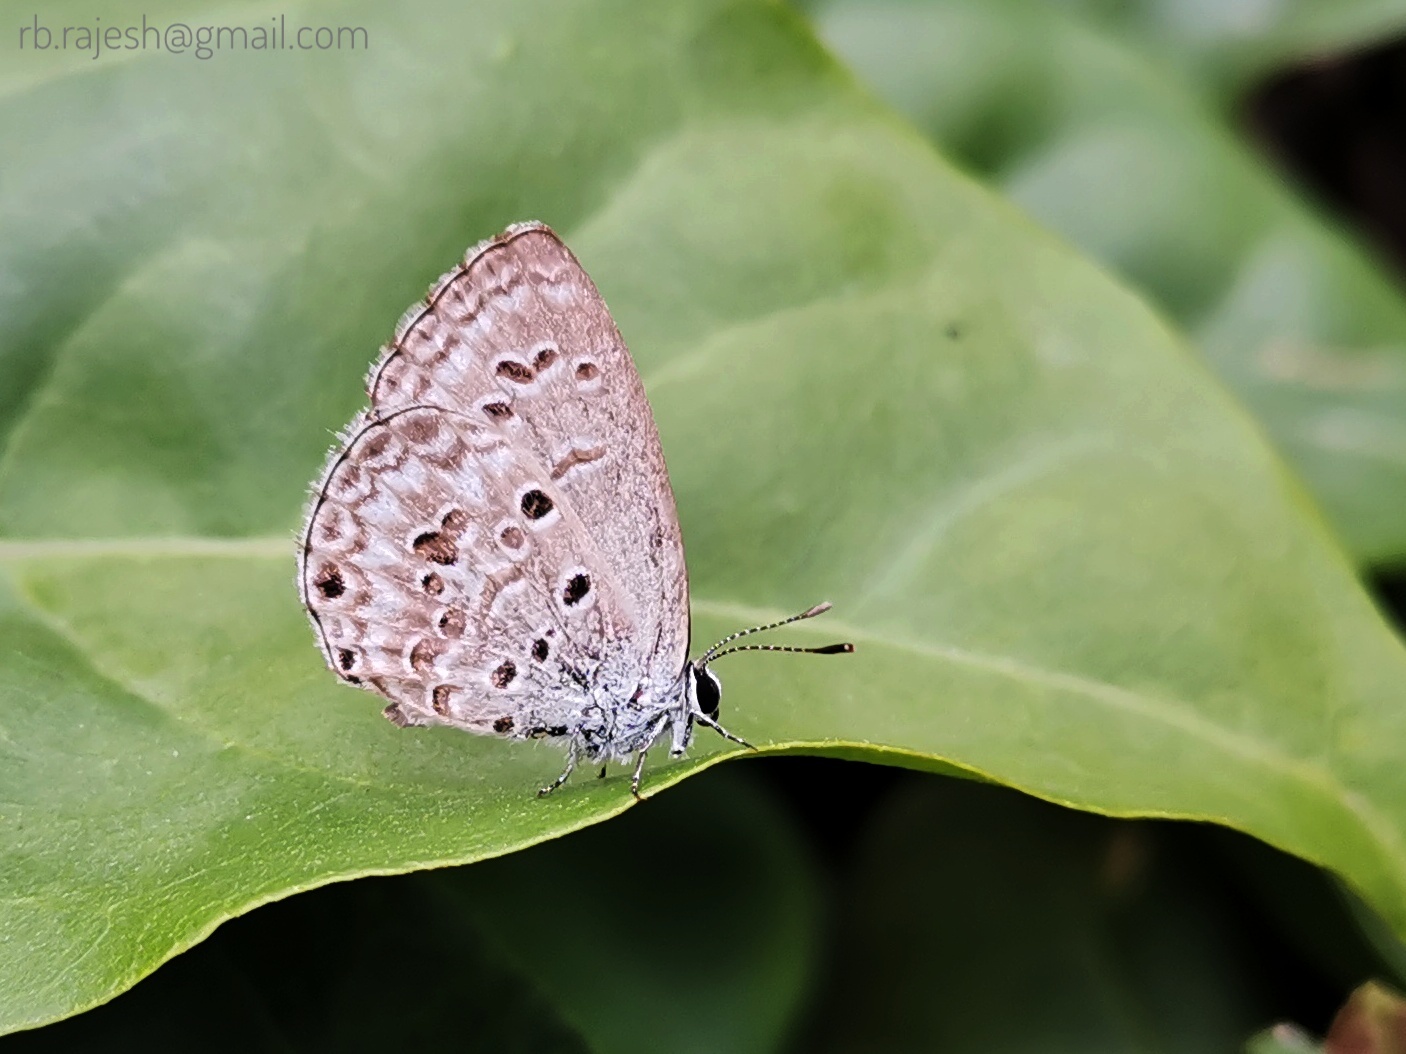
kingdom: Animalia
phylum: Arthropoda
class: Insecta
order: Lepidoptera
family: Lycaenidae
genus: Chilades
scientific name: Chilades laius
